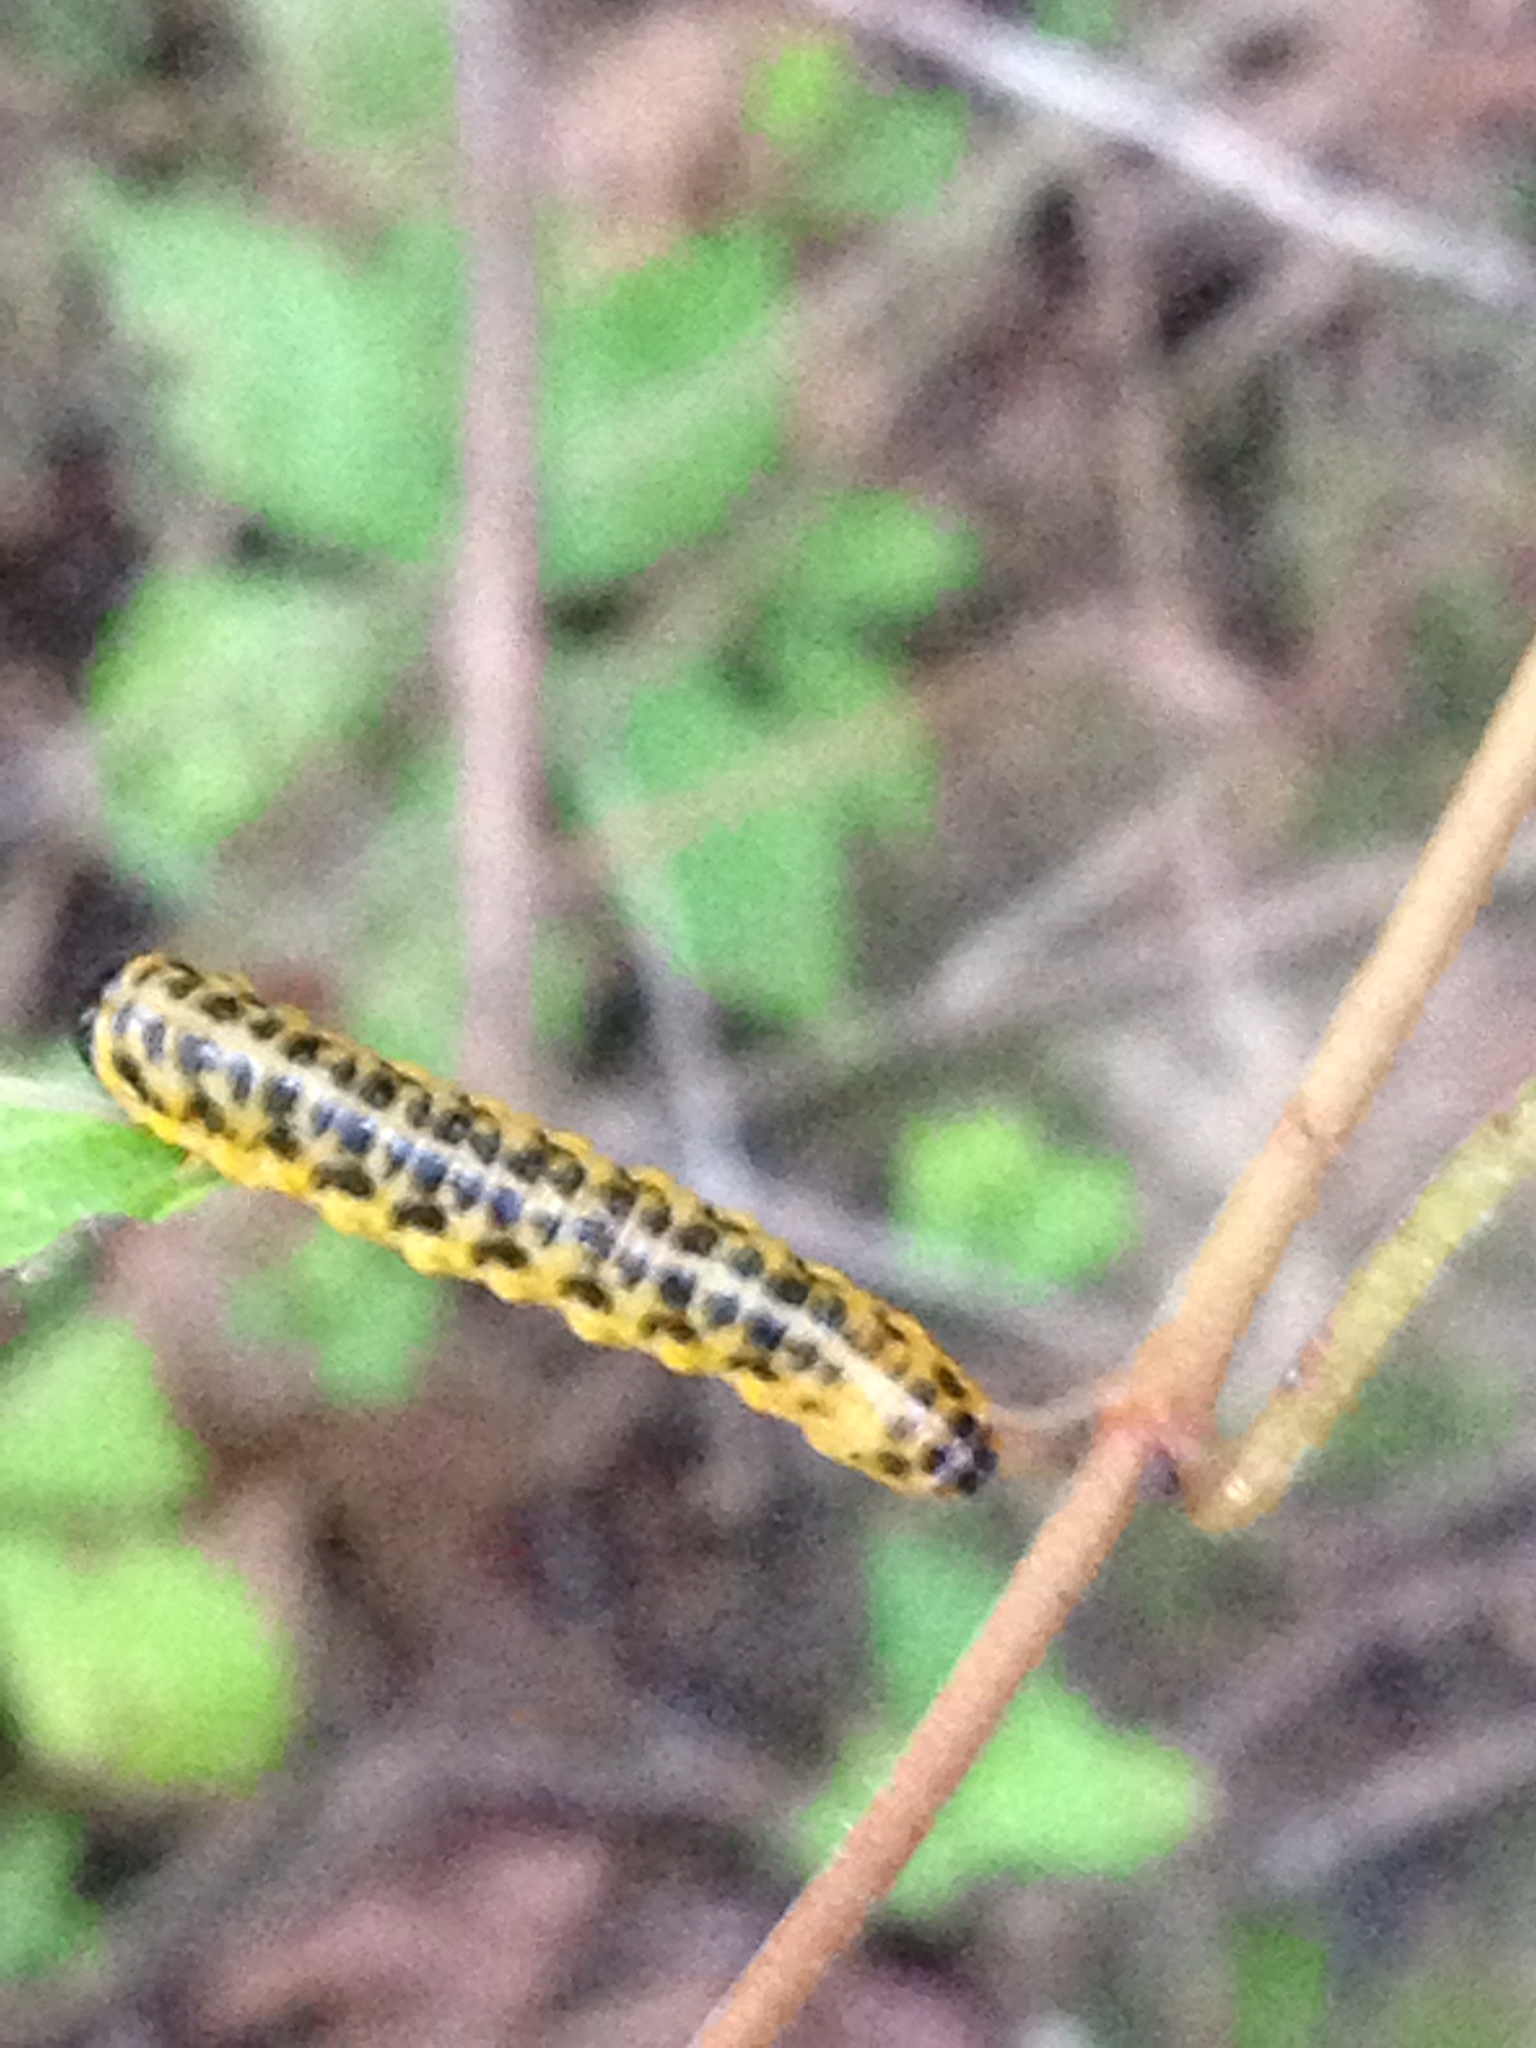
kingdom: Animalia
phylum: Arthropoda
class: Insecta
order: Hymenoptera
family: Tenthredinidae
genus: Macremphytus
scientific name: Macremphytus testaceus
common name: Dogwood sawfly
